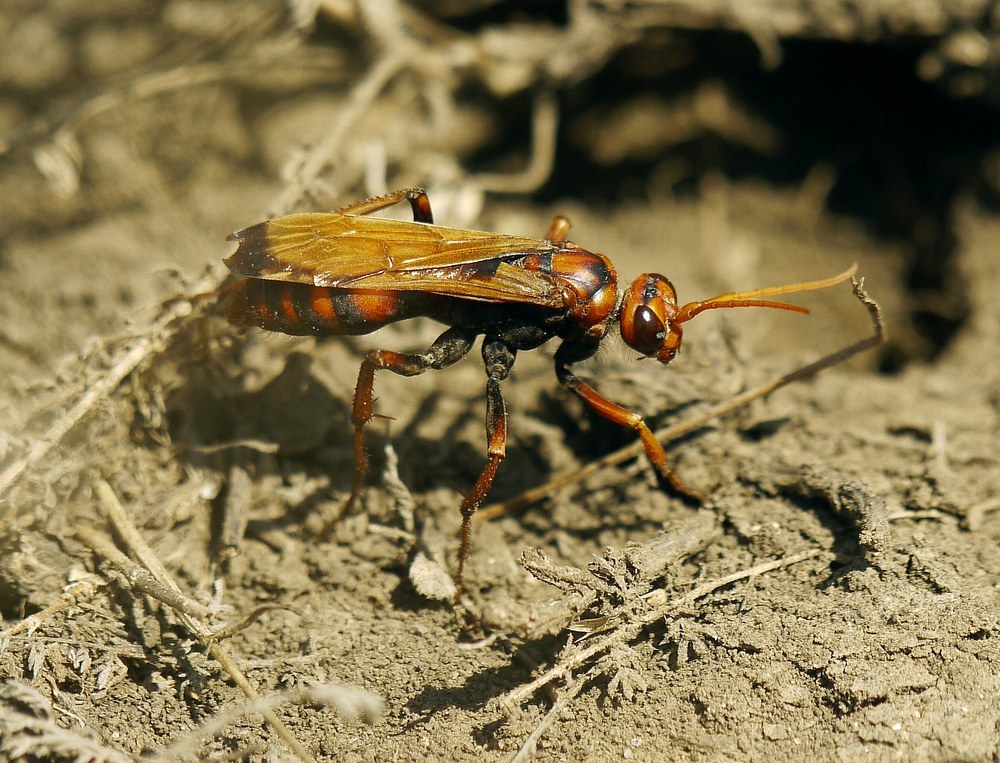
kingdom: Animalia
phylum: Arthropoda
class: Insecta
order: Hymenoptera
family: Pompilidae
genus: Cryptocheilus
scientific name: Cryptocheilus rubellus
